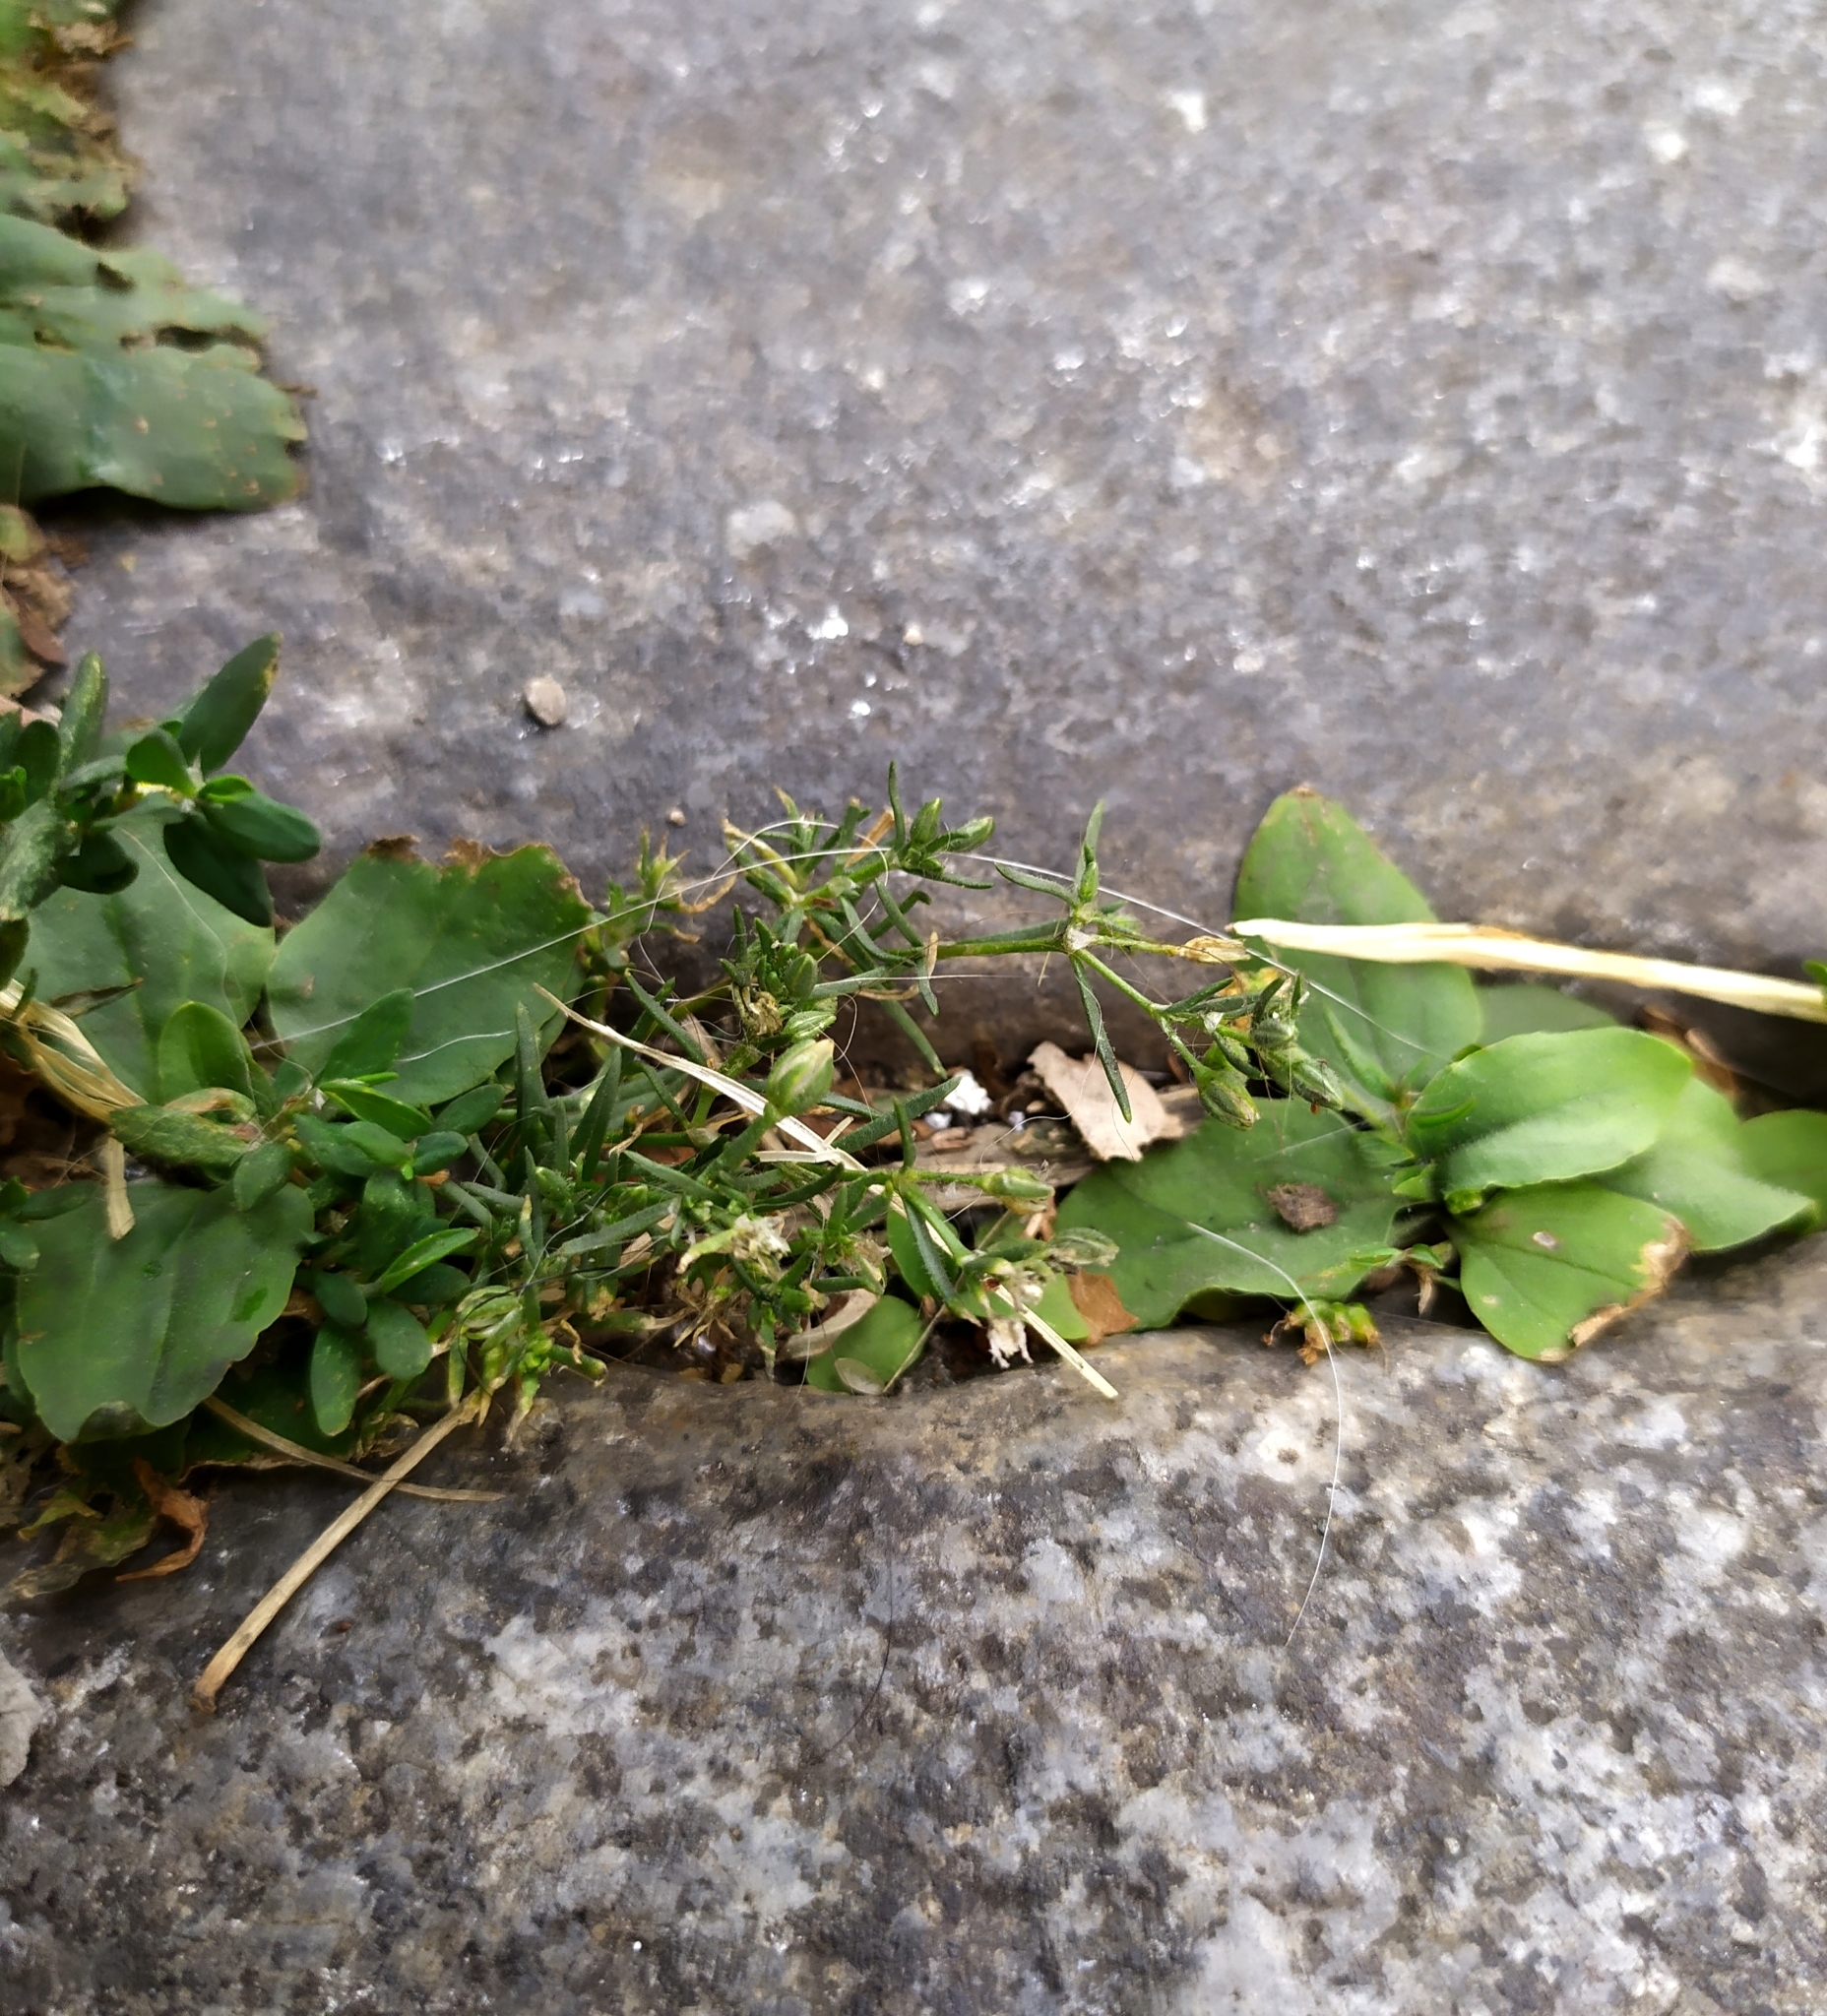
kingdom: Plantae
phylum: Tracheophyta
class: Magnoliopsida
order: Caryophyllales
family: Caryophyllaceae
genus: Spergularia
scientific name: Spergularia marina
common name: Lesser sea-spurrey
